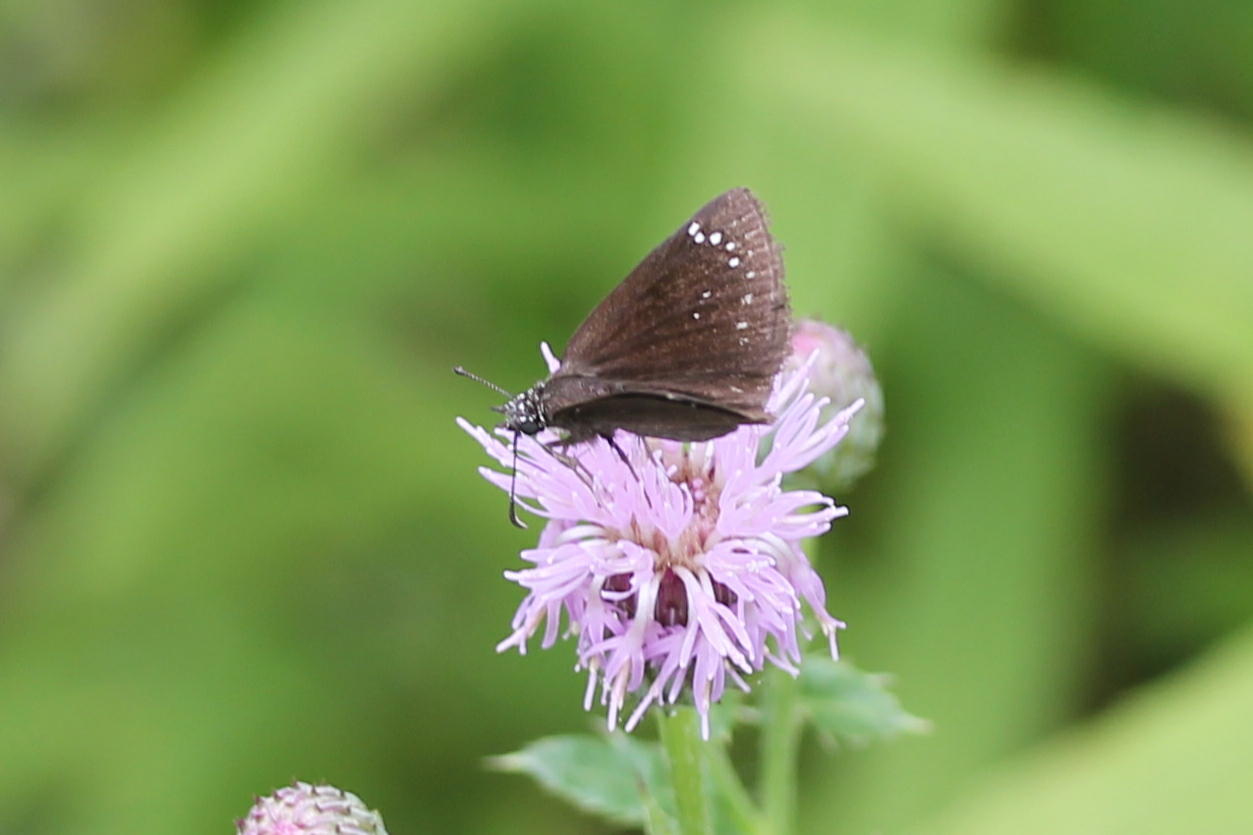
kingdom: Animalia
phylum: Arthropoda
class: Insecta
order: Lepidoptera
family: Hesperiidae
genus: Pholisora
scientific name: Pholisora catullus
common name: Common sootywing
